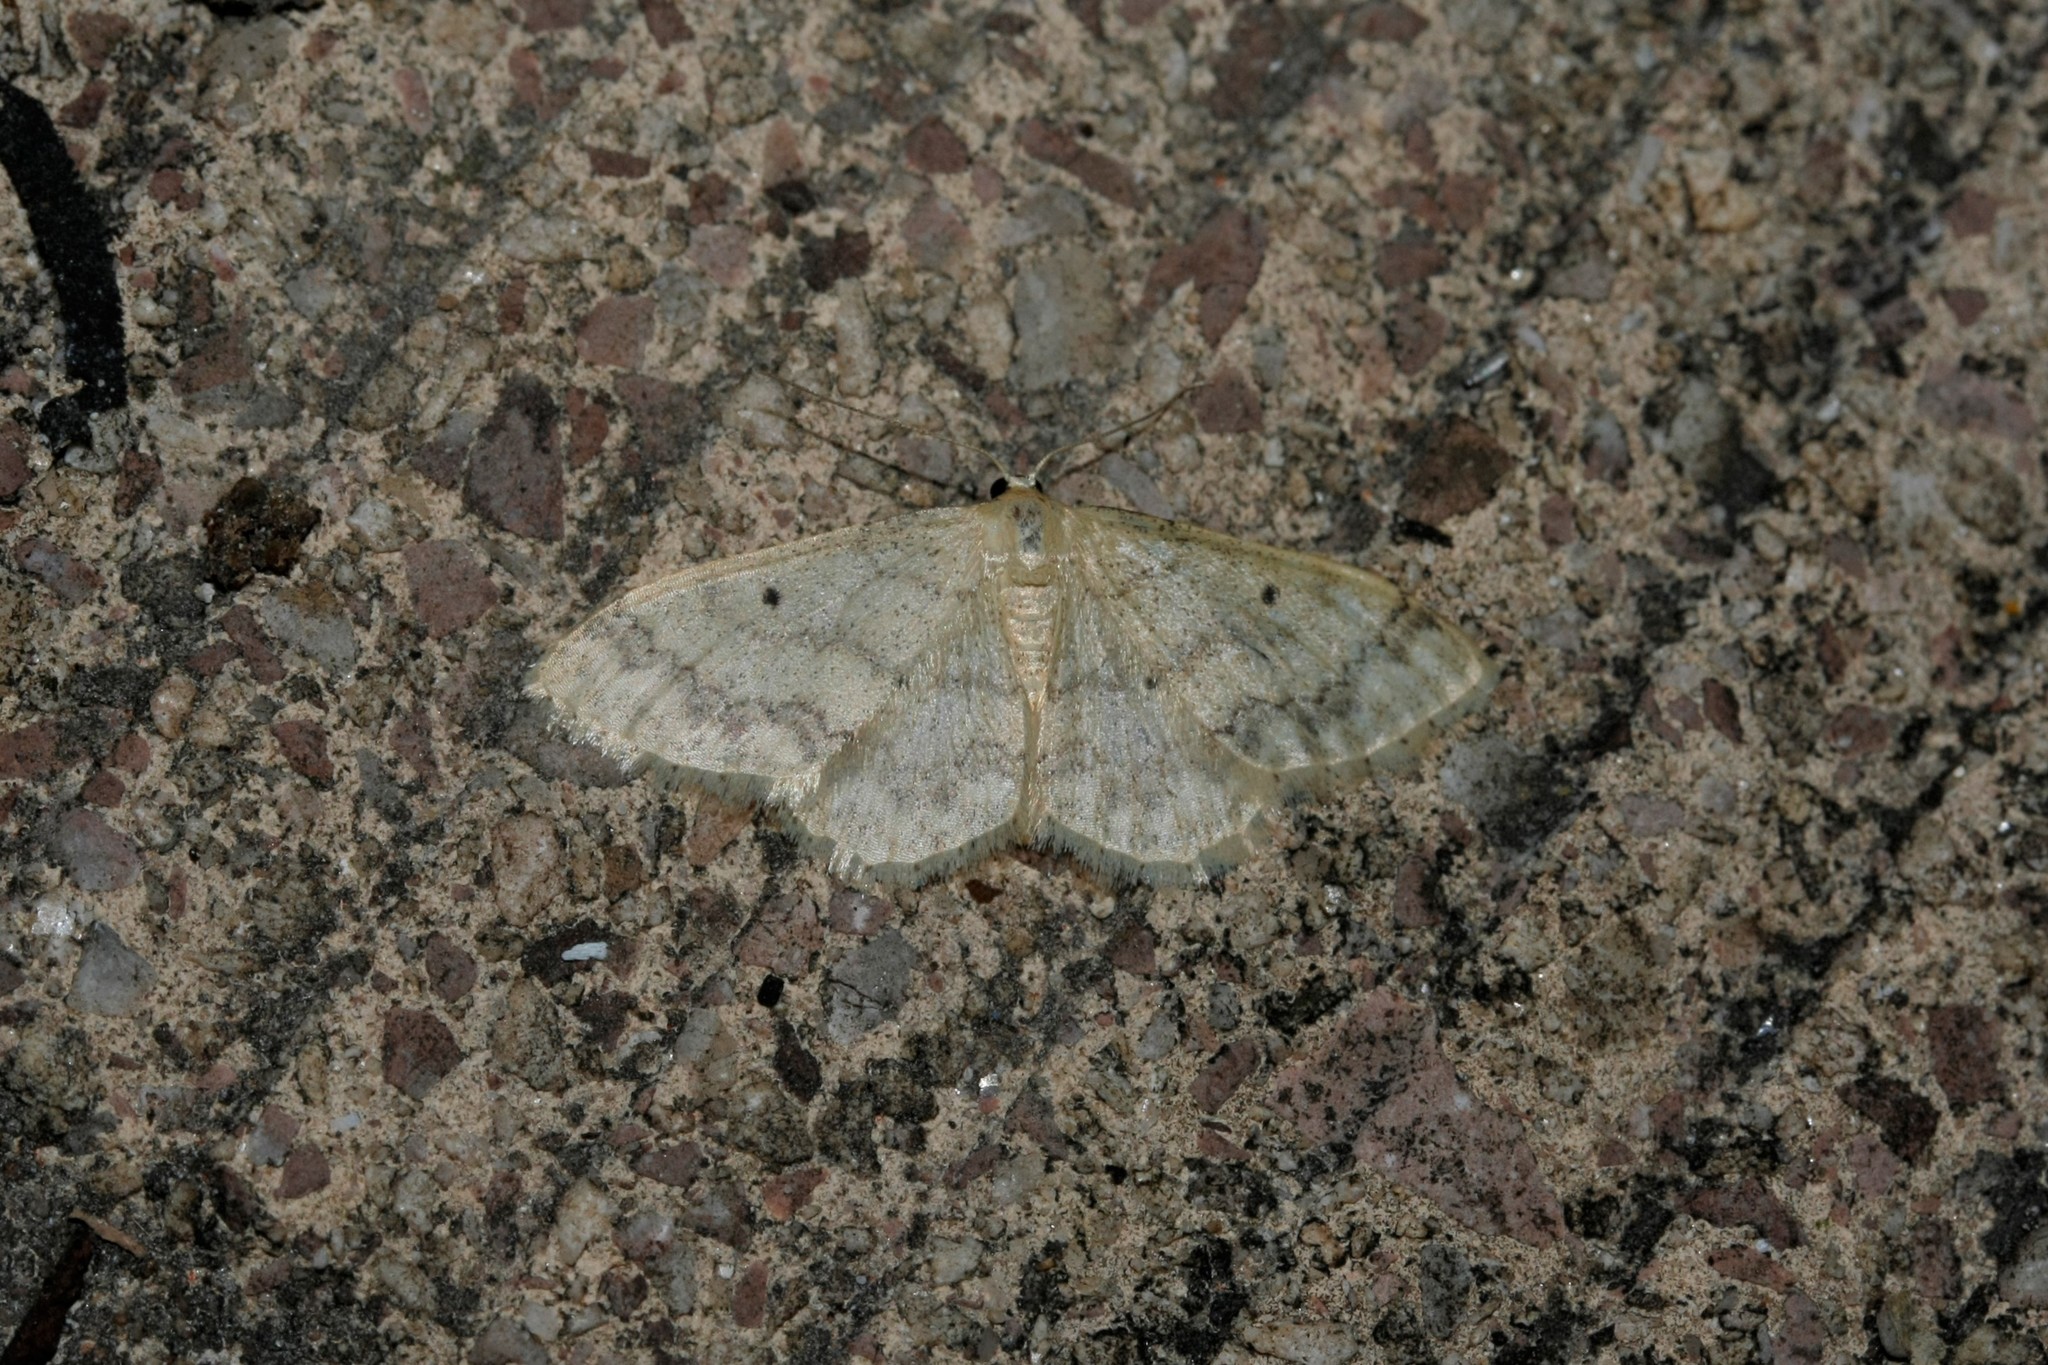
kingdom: Animalia
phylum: Arthropoda
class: Insecta
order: Lepidoptera
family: Geometridae
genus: Idaea
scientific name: Idaea biselata
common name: Small fan-footed wave
